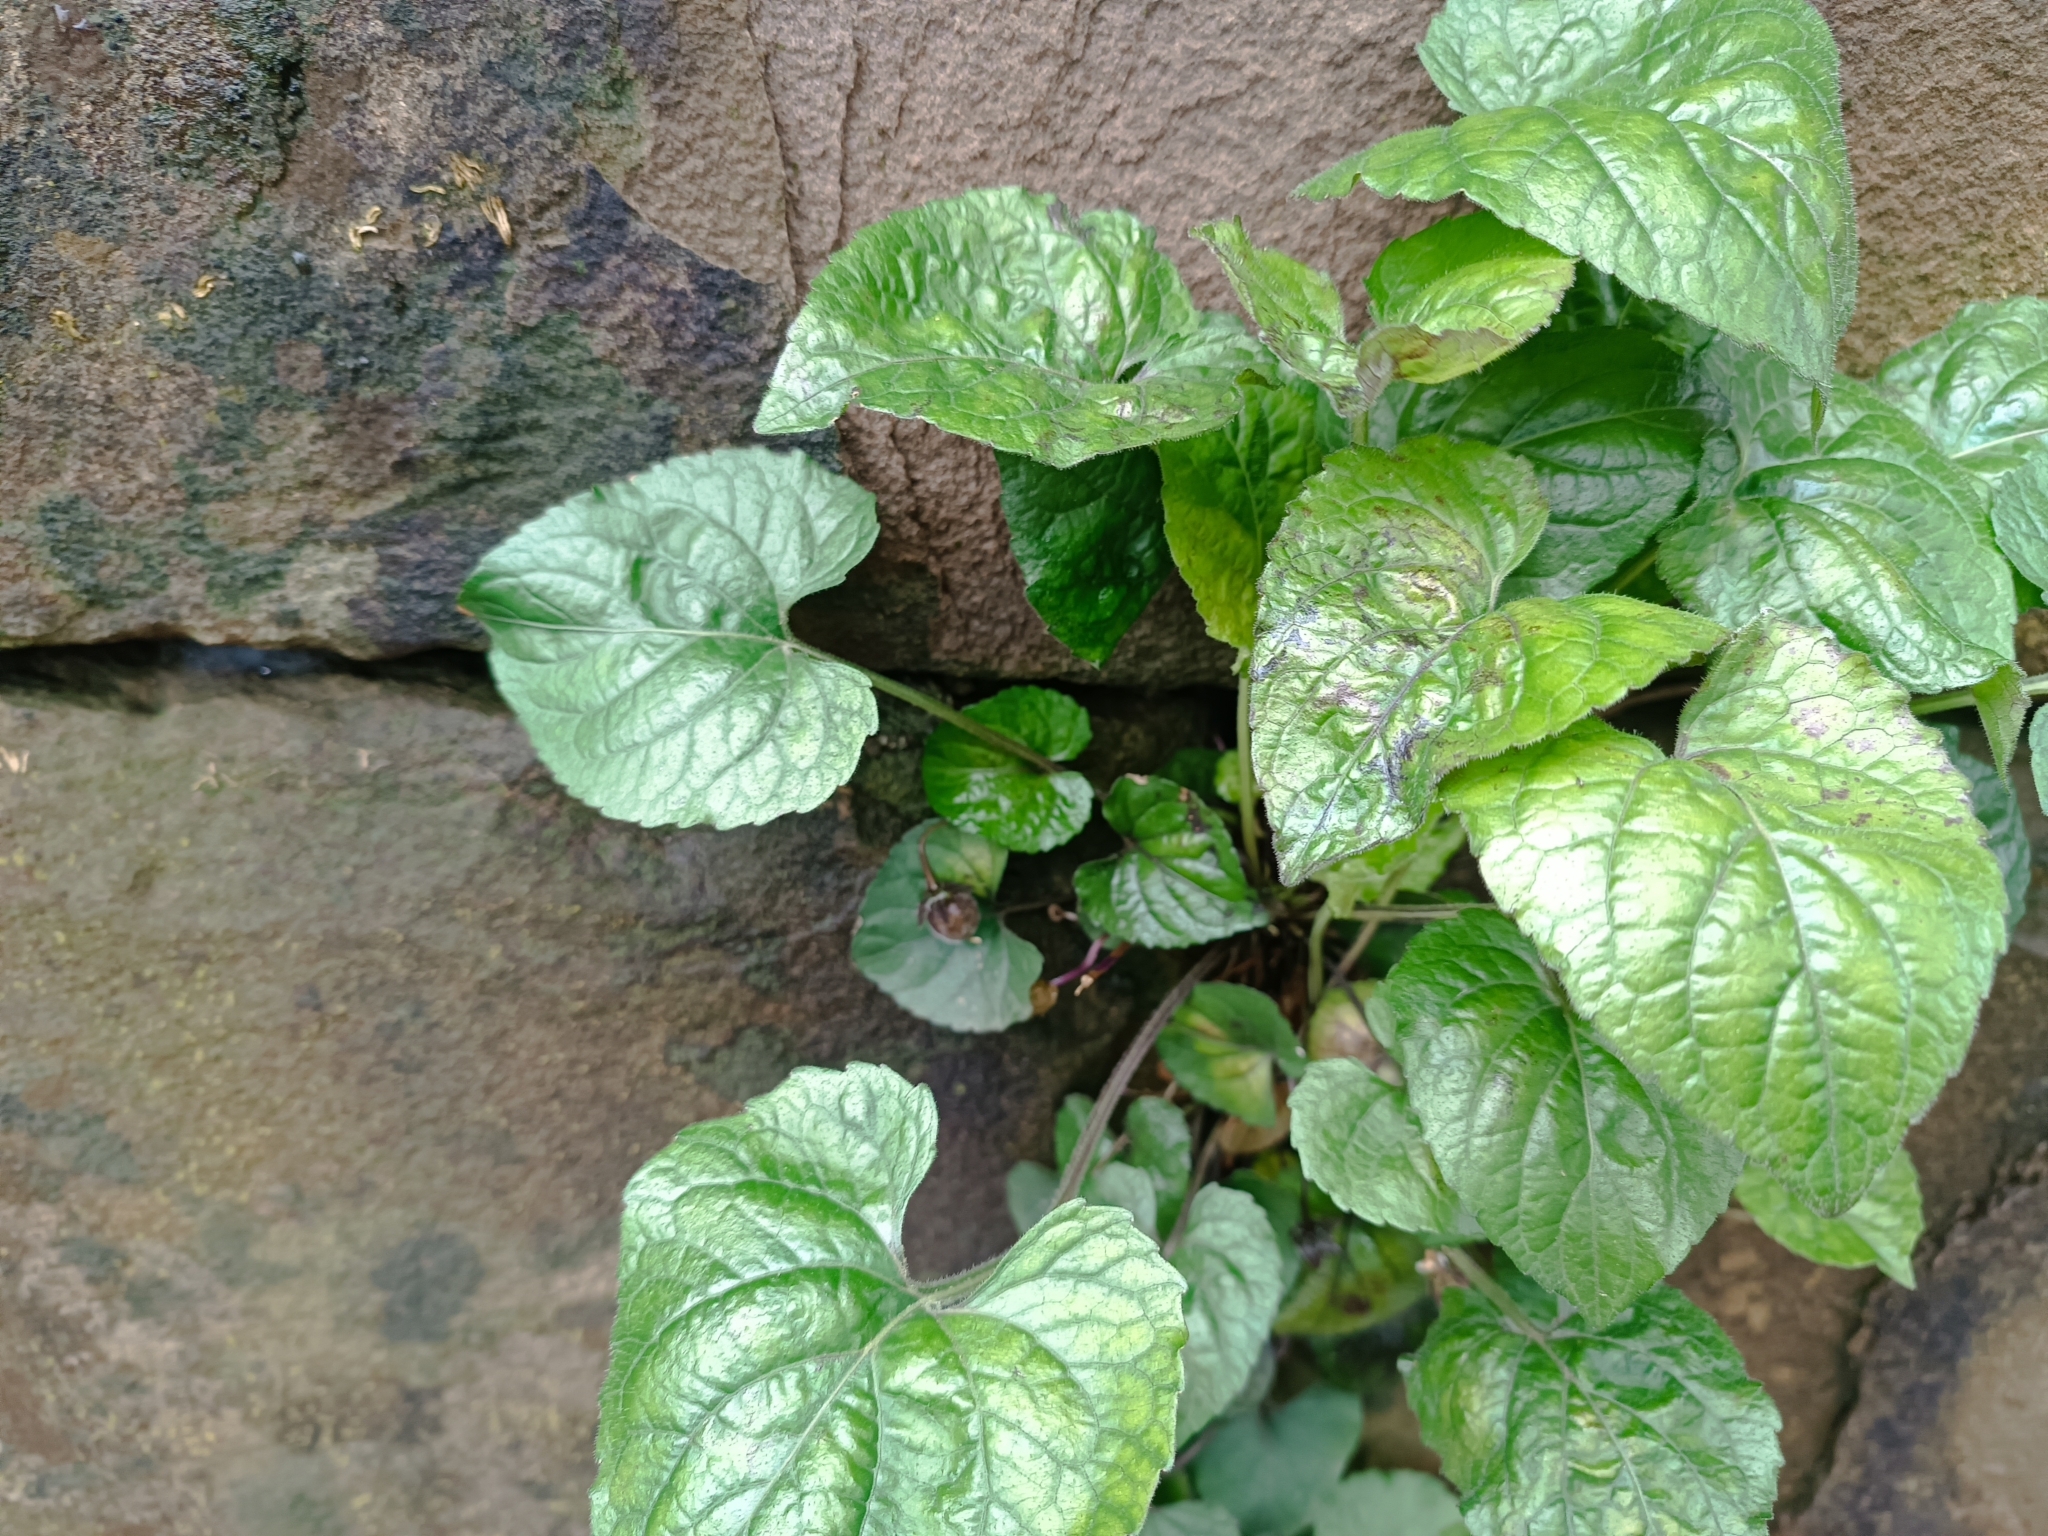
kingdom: Plantae
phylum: Tracheophyta
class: Magnoliopsida
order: Malpighiales
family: Violaceae
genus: Viola
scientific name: Viola alba
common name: White violet
